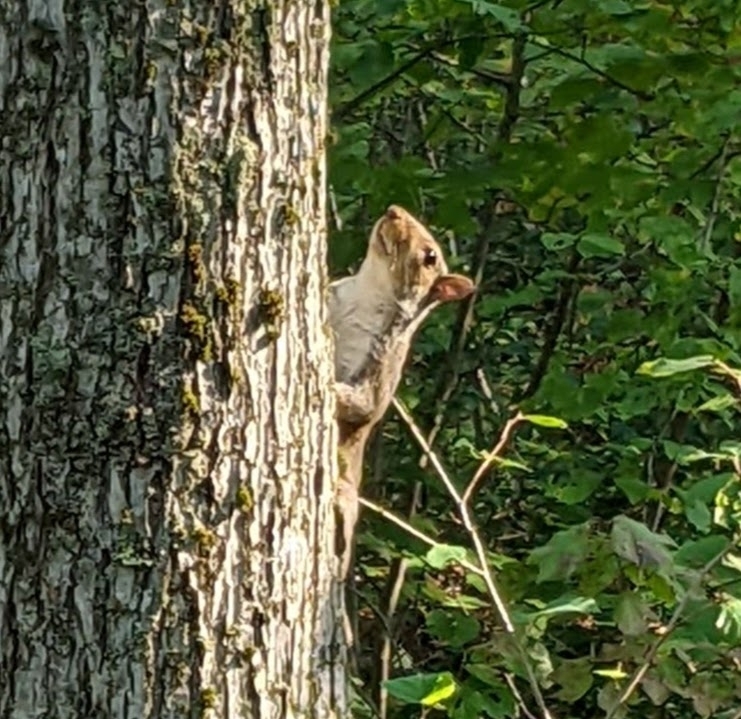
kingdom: Animalia
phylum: Chordata
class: Mammalia
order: Rodentia
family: Sciuridae
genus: Sciurus
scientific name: Sciurus carolinensis
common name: Eastern gray squirrel
